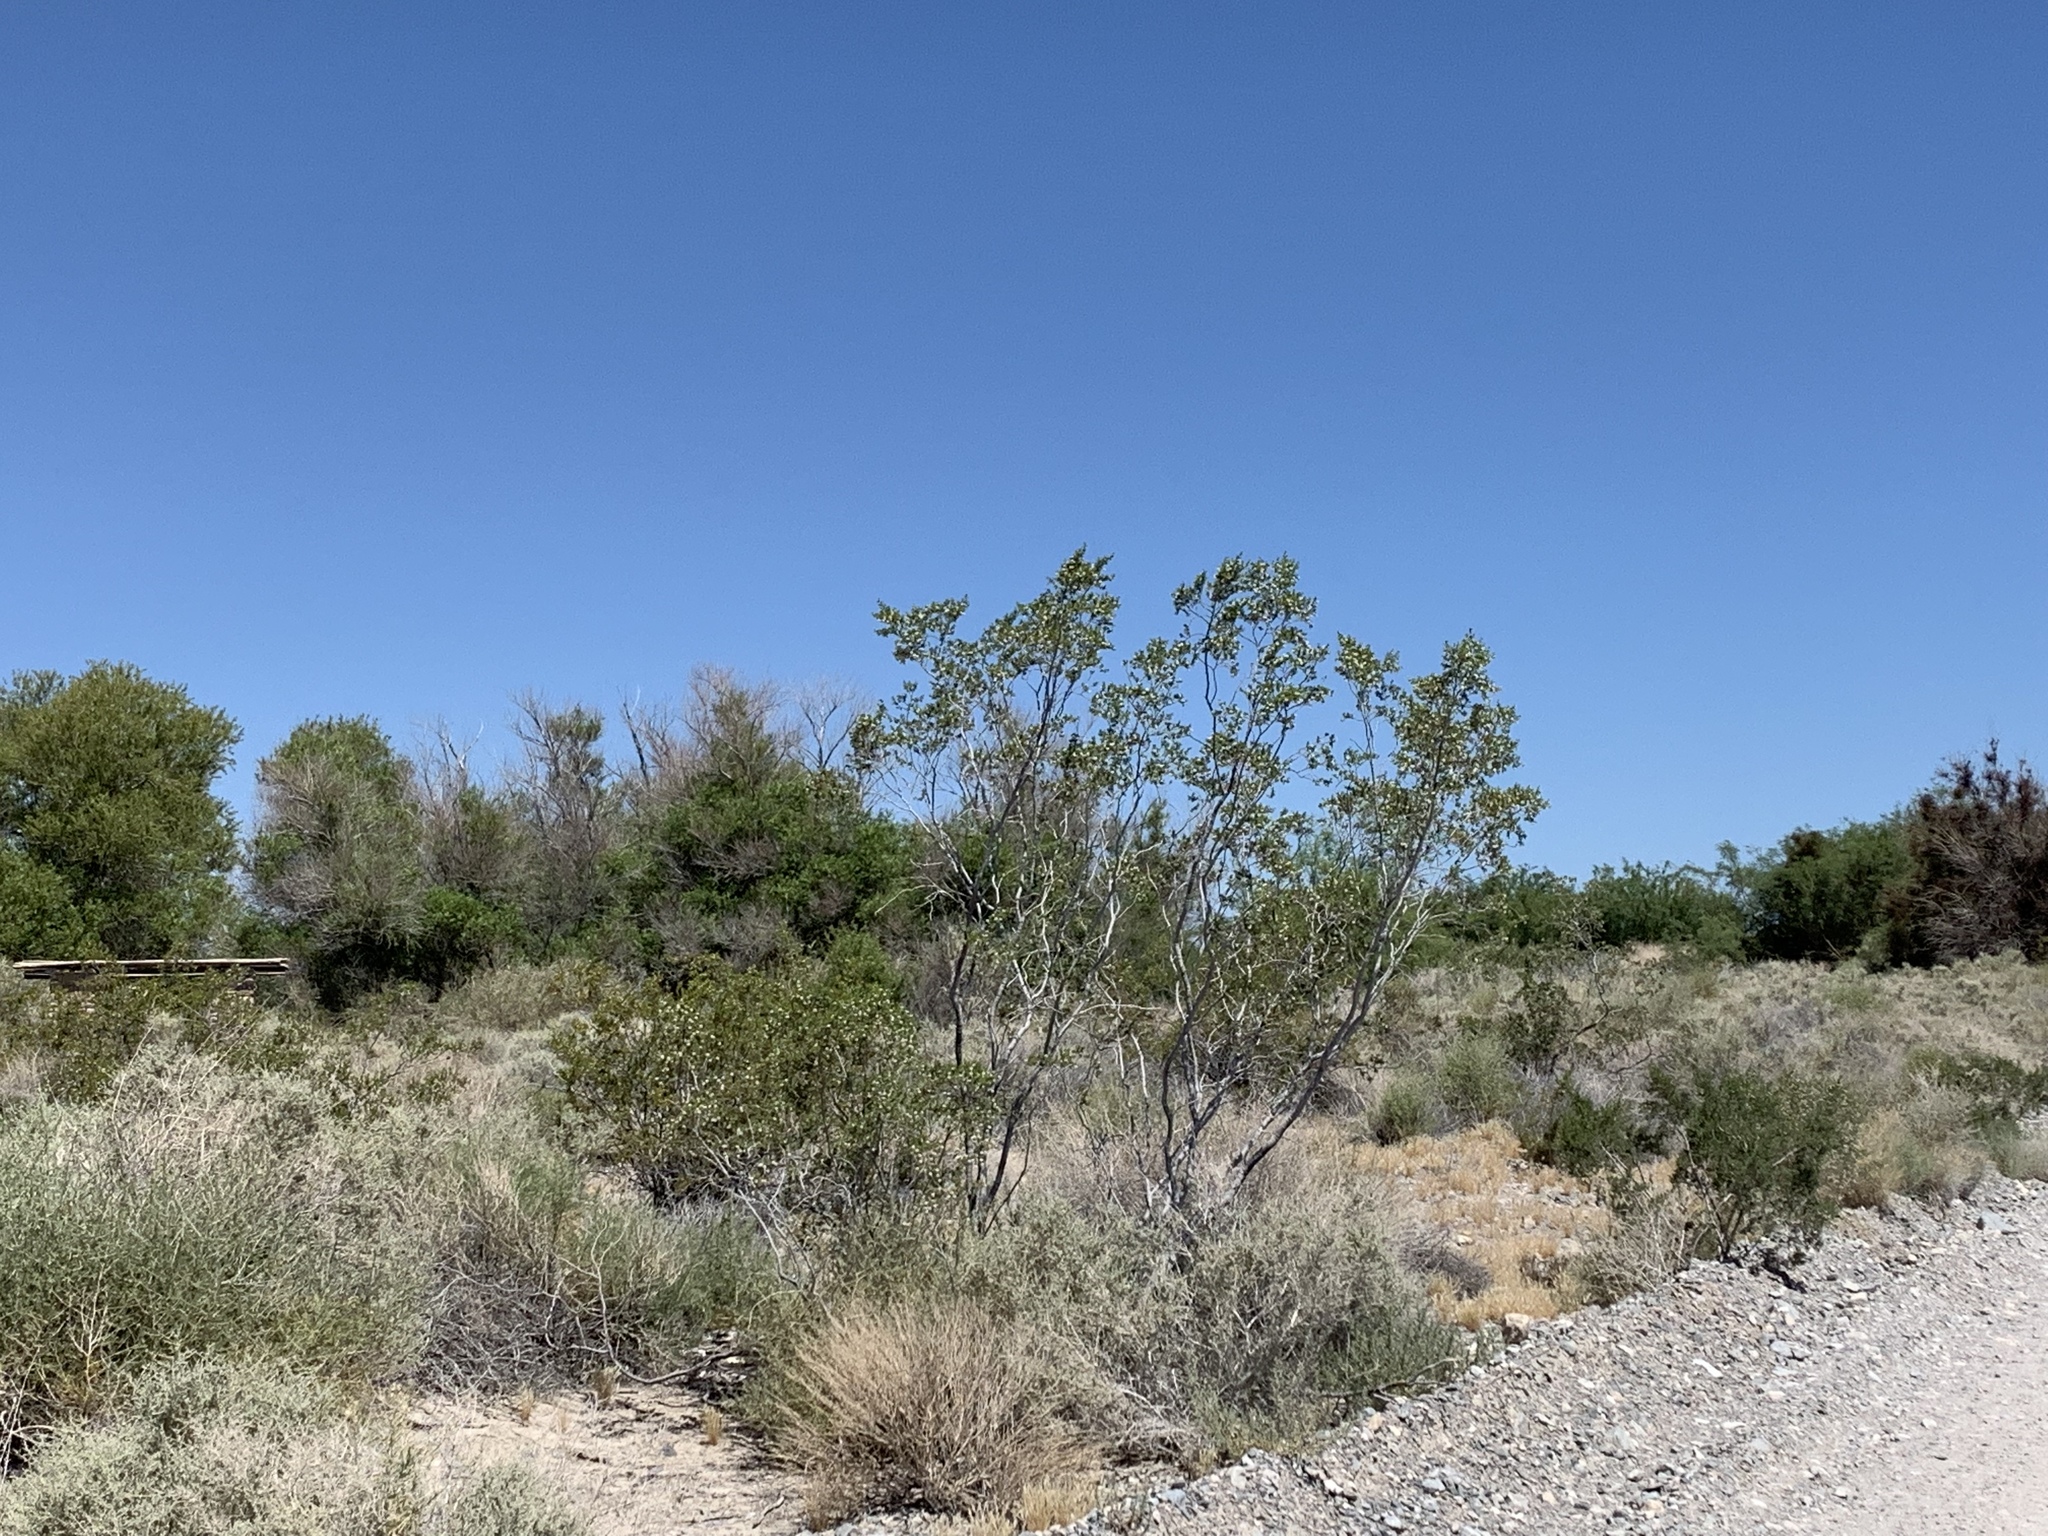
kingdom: Plantae
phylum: Tracheophyta
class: Magnoliopsida
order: Zygophyllales
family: Zygophyllaceae
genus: Larrea
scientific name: Larrea tridentata
